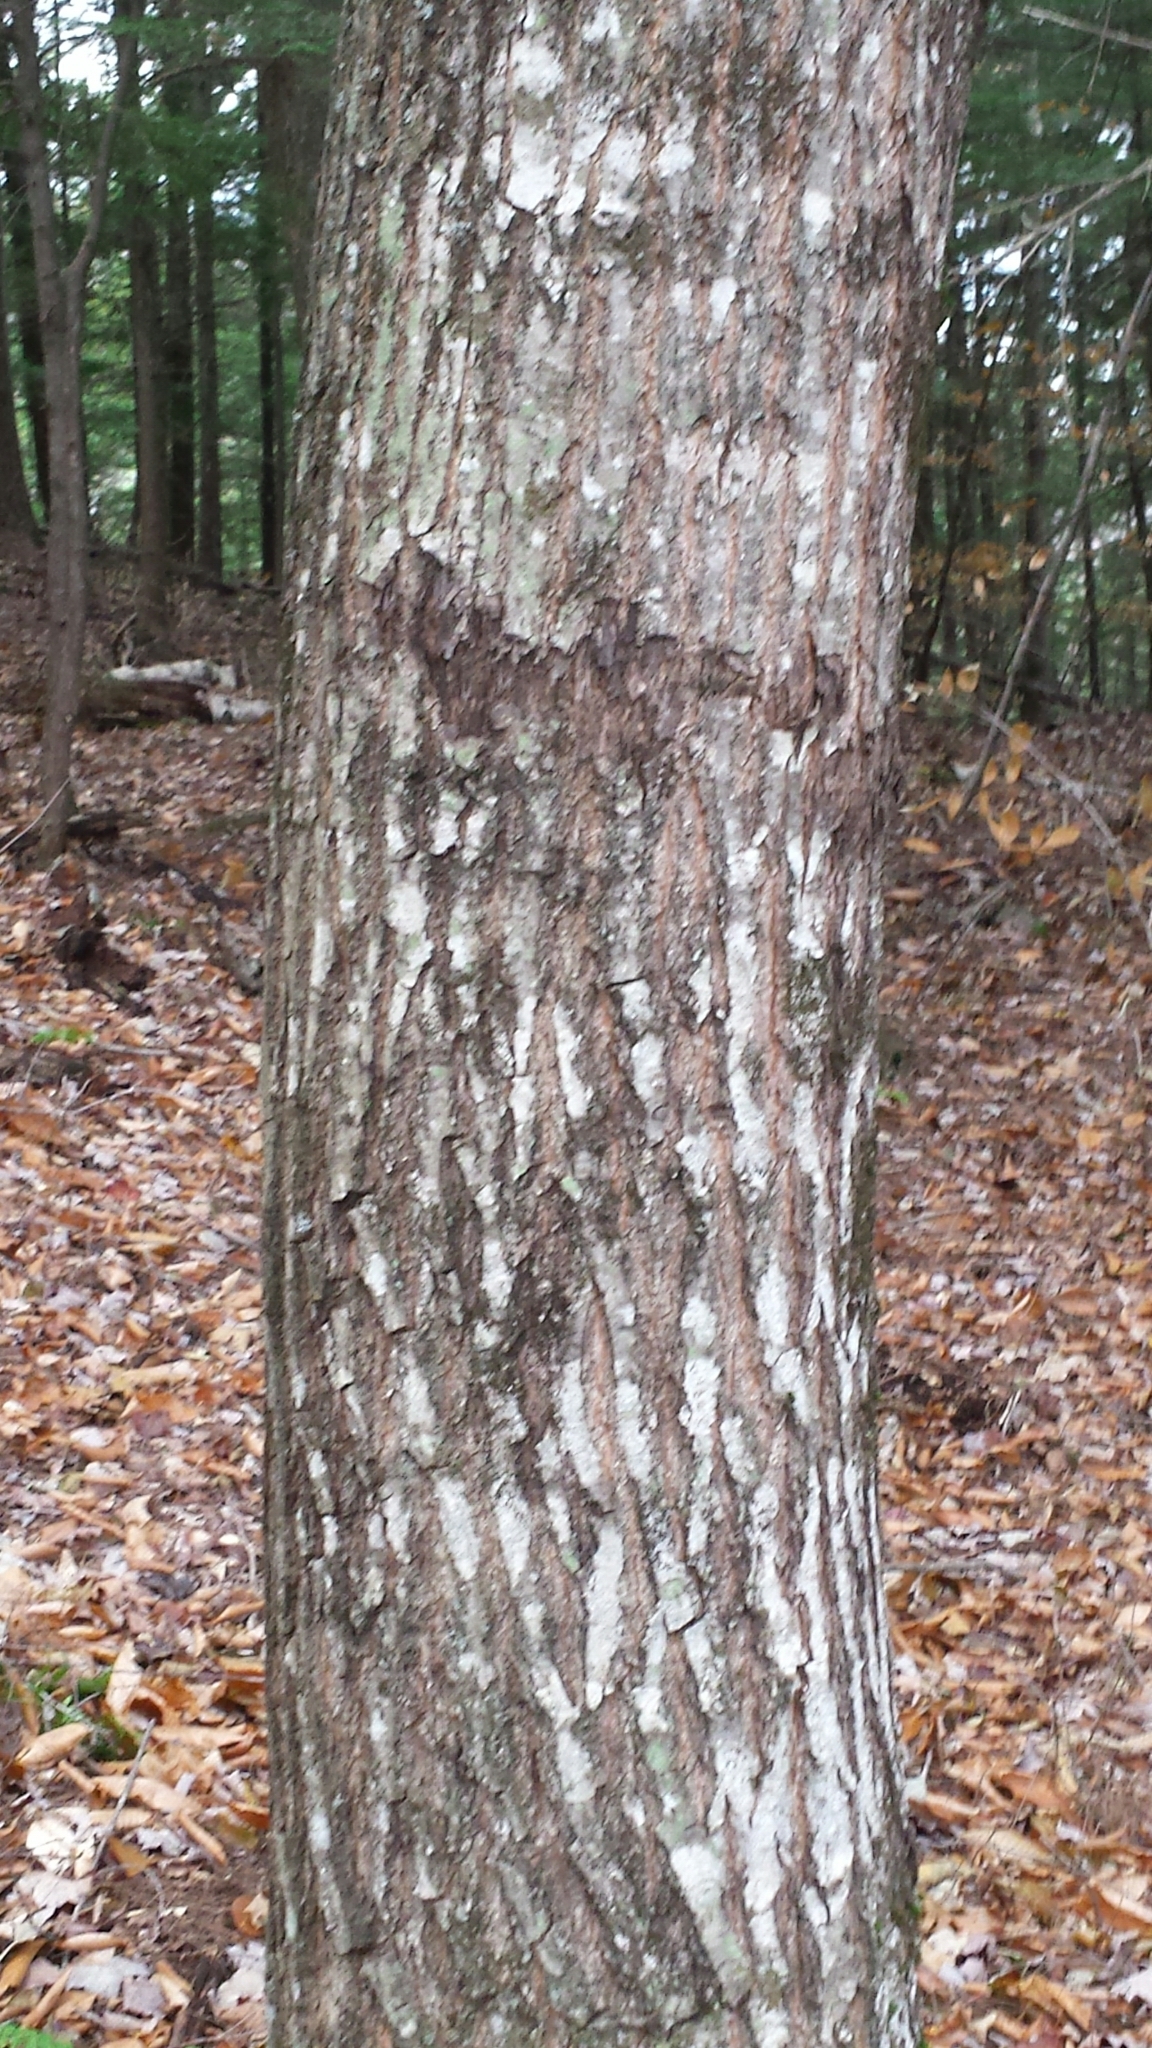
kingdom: Plantae
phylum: Tracheophyta
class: Magnoliopsida
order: Fagales
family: Fagaceae
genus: Quercus
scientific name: Quercus rubra
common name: Red oak
